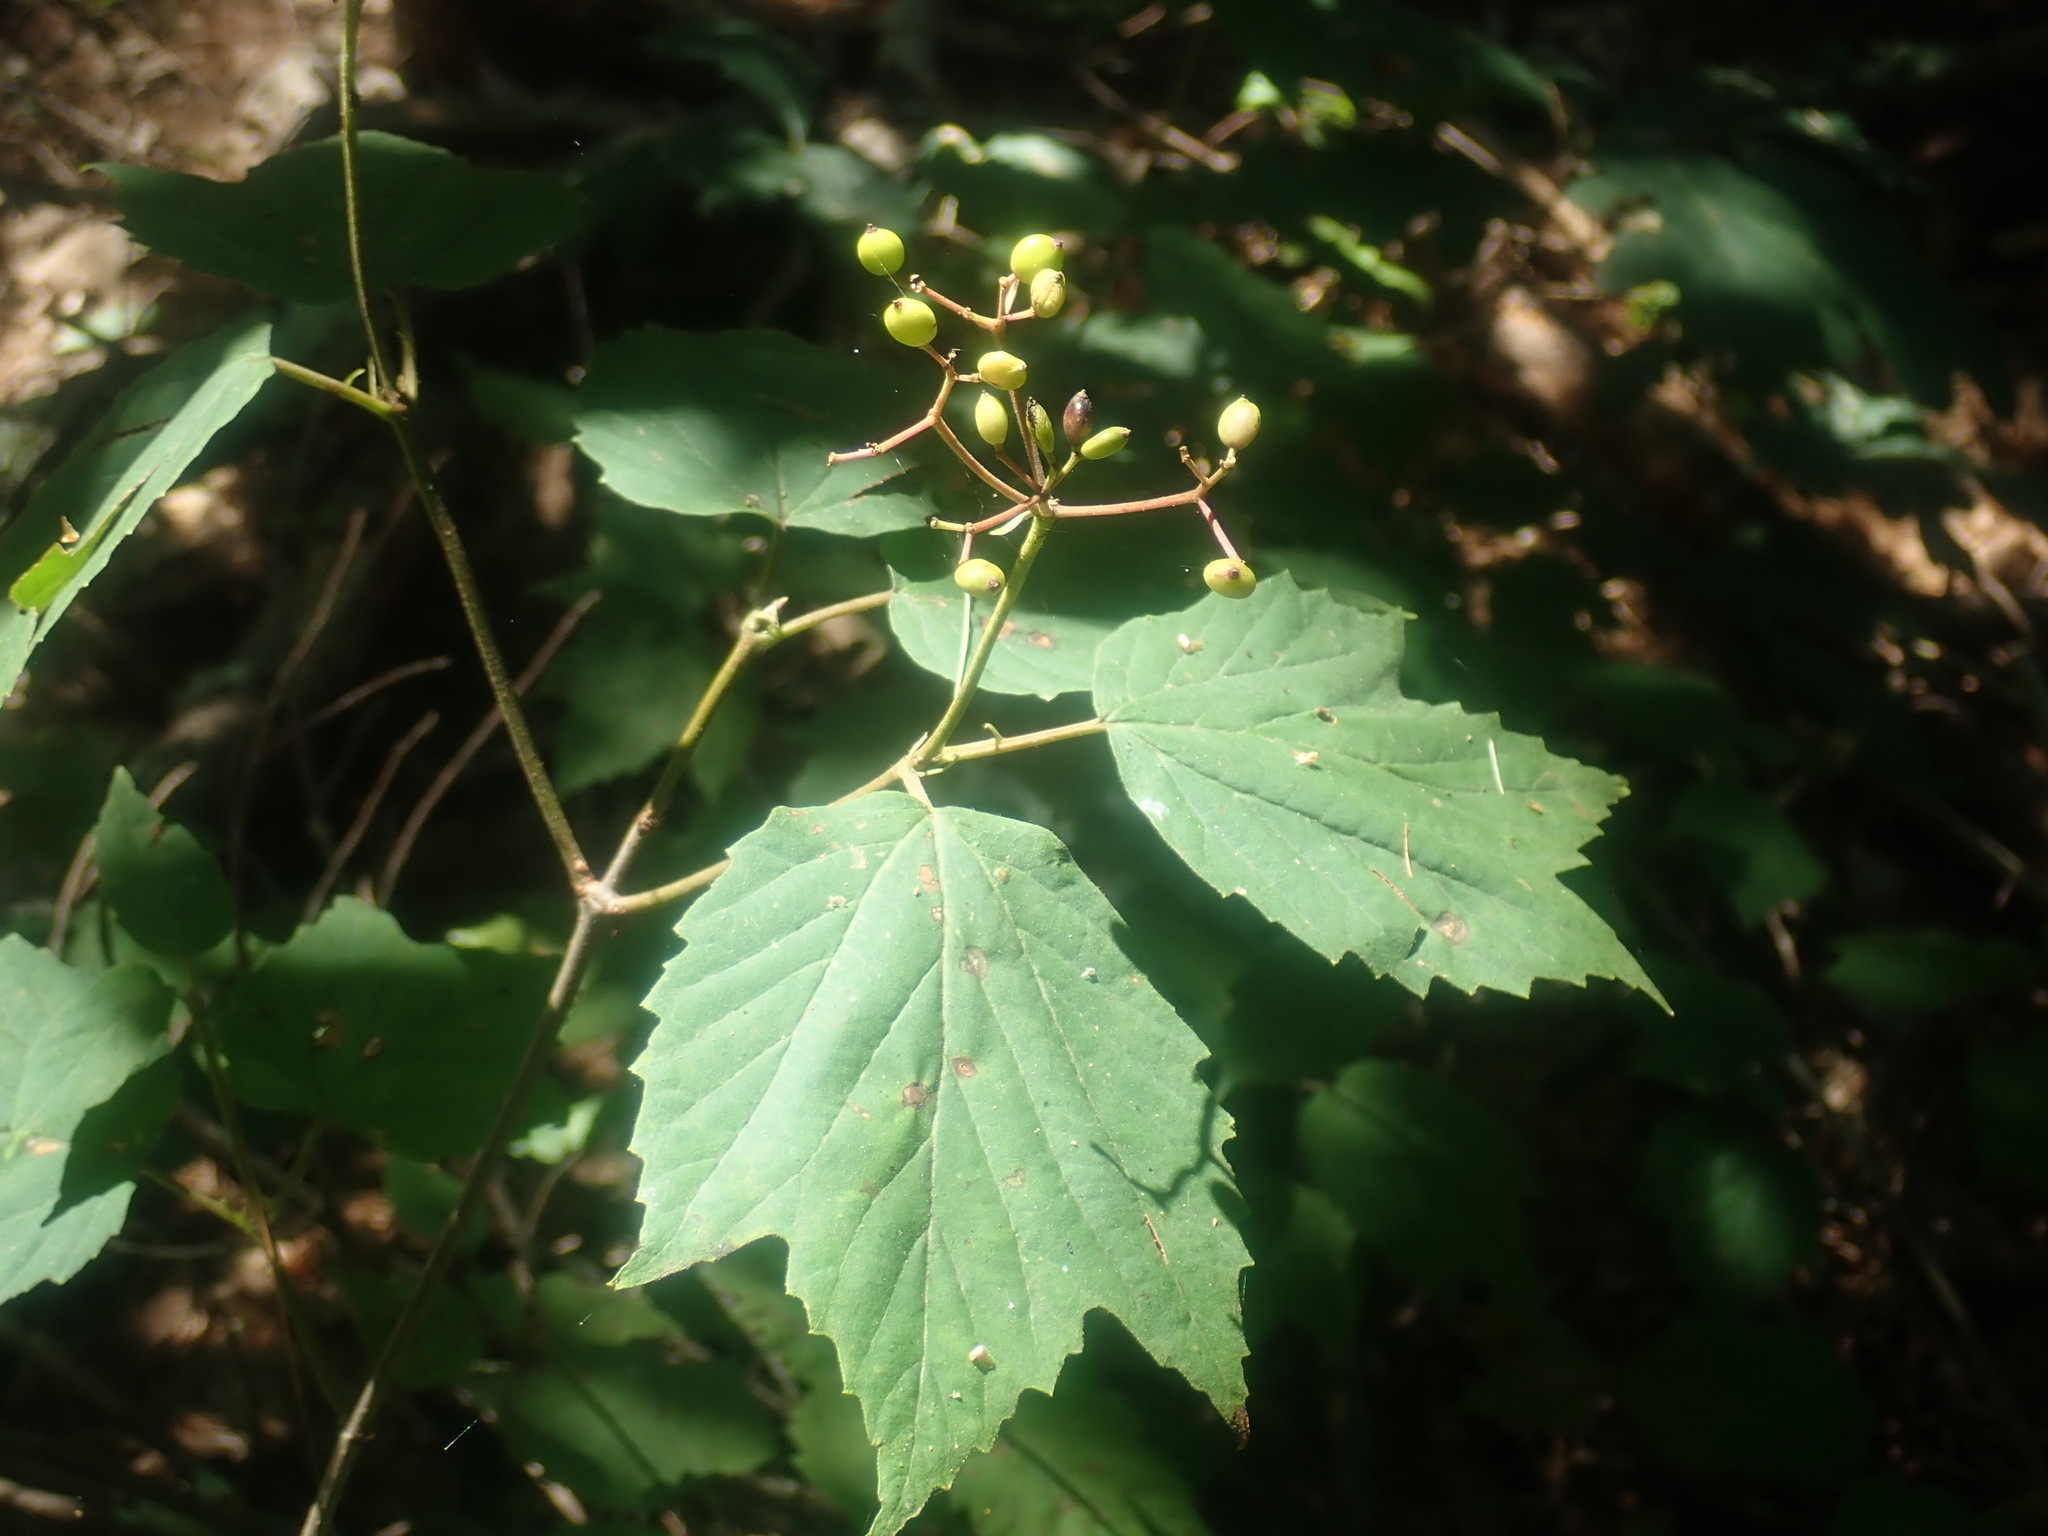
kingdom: Plantae
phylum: Tracheophyta
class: Magnoliopsida
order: Dipsacales
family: Viburnaceae
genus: Viburnum
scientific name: Viburnum acerifolium
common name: Dockmackie
